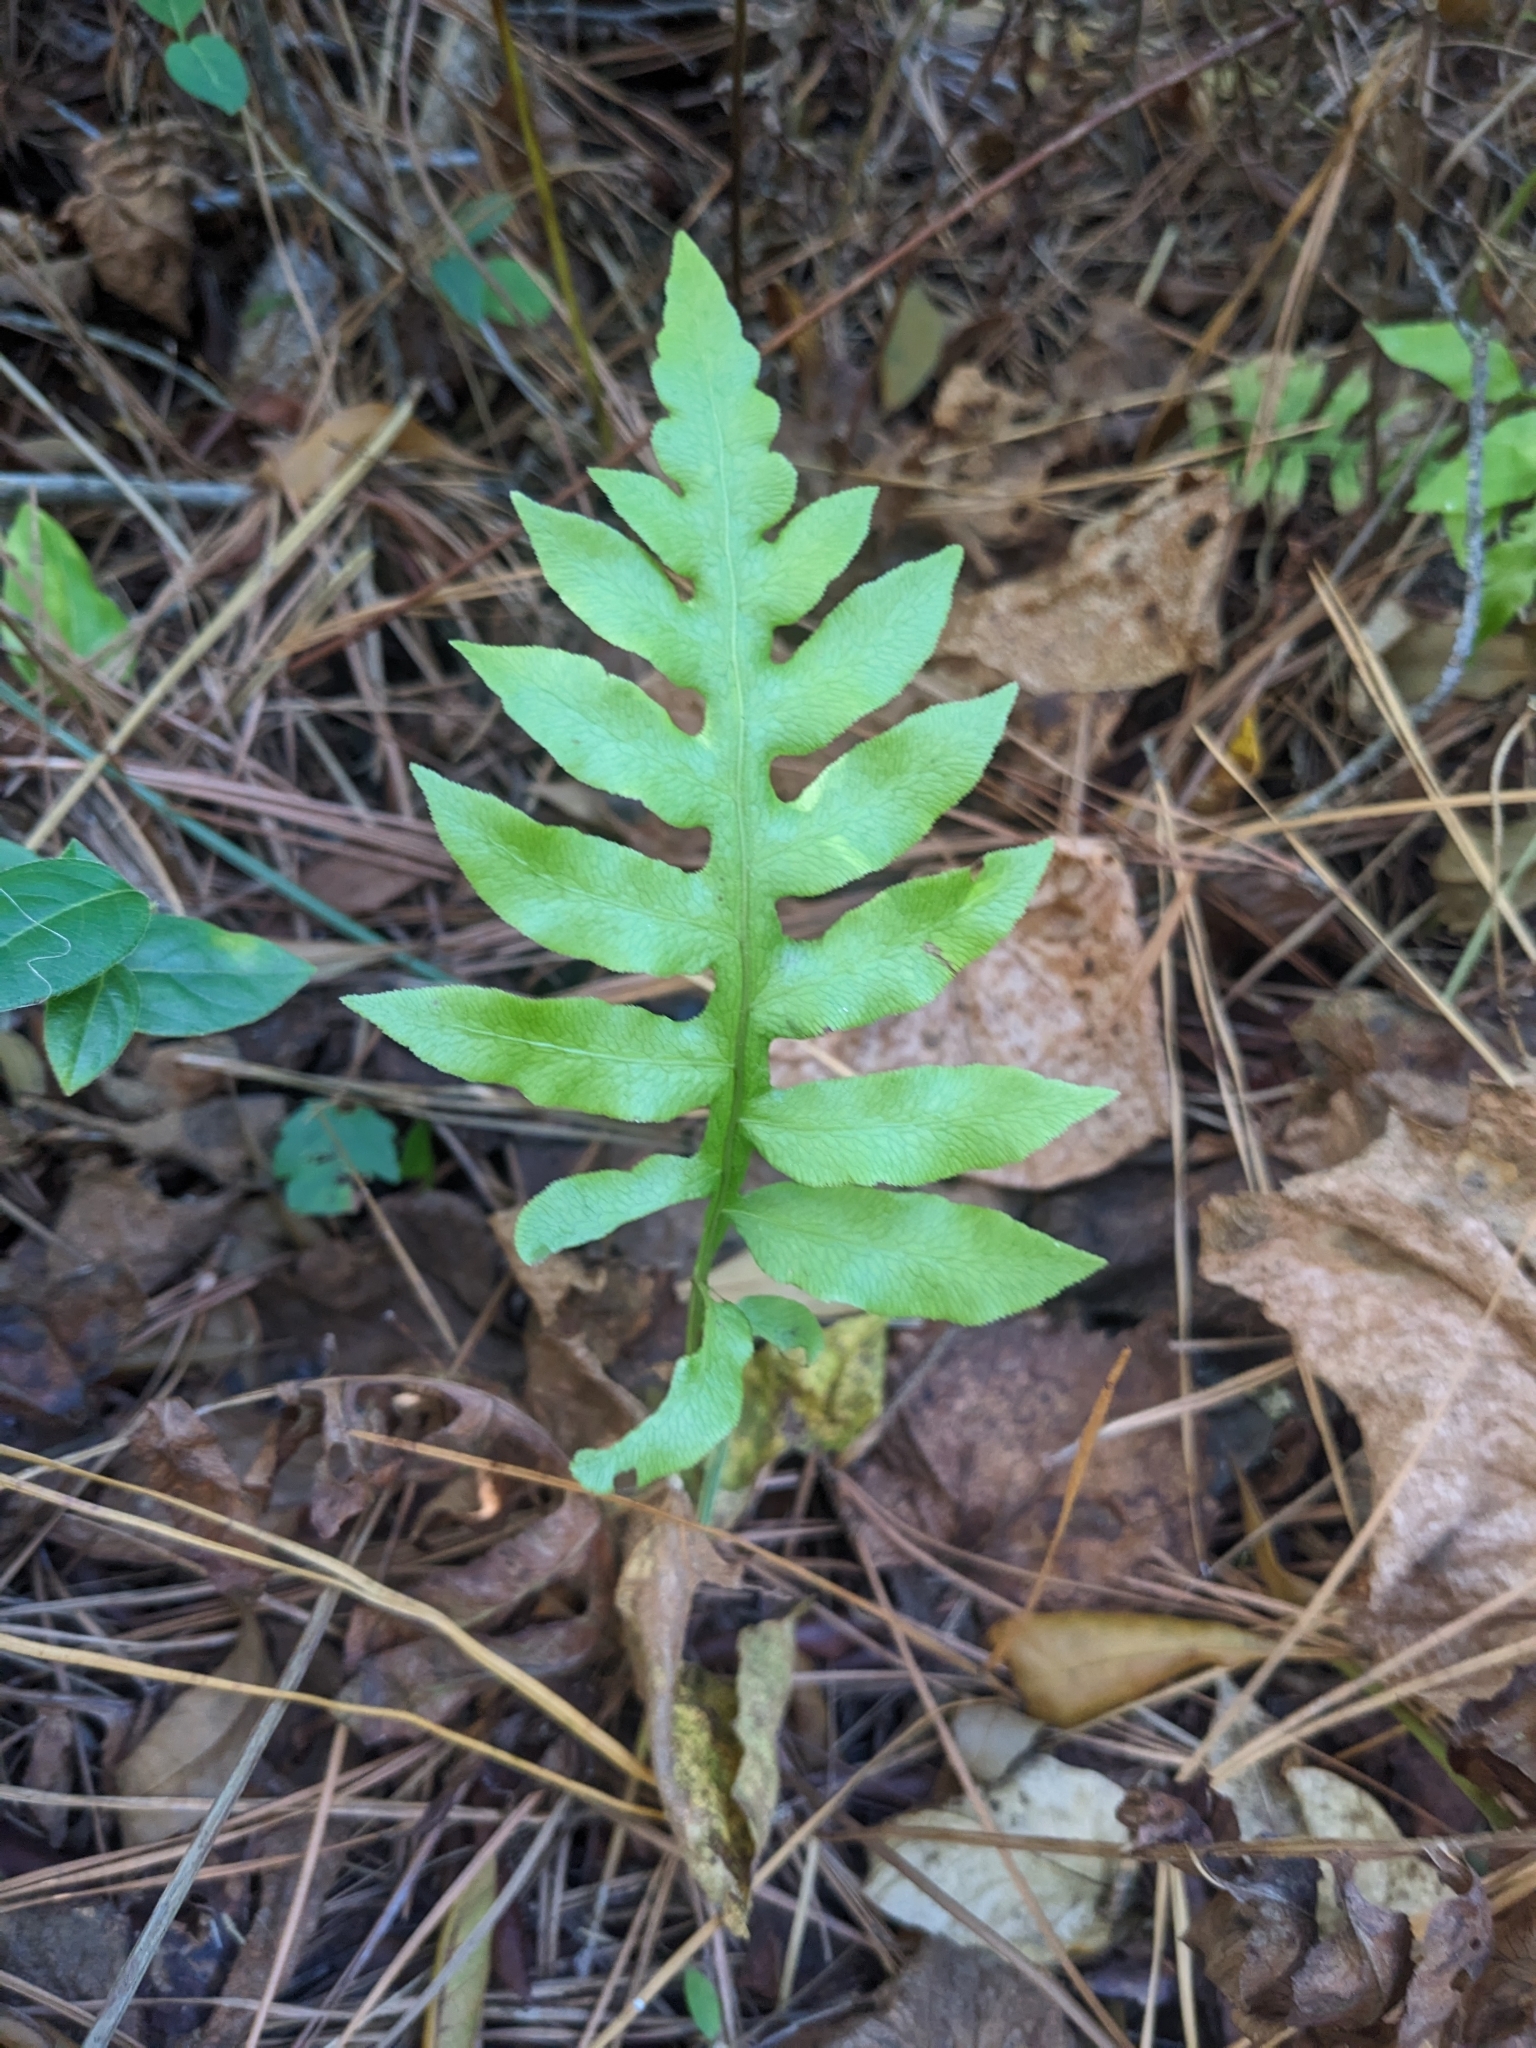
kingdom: Plantae
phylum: Tracheophyta
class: Polypodiopsida
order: Polypodiales
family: Blechnaceae
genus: Lorinseria
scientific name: Lorinseria areolata
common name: Dwarf chain fern
